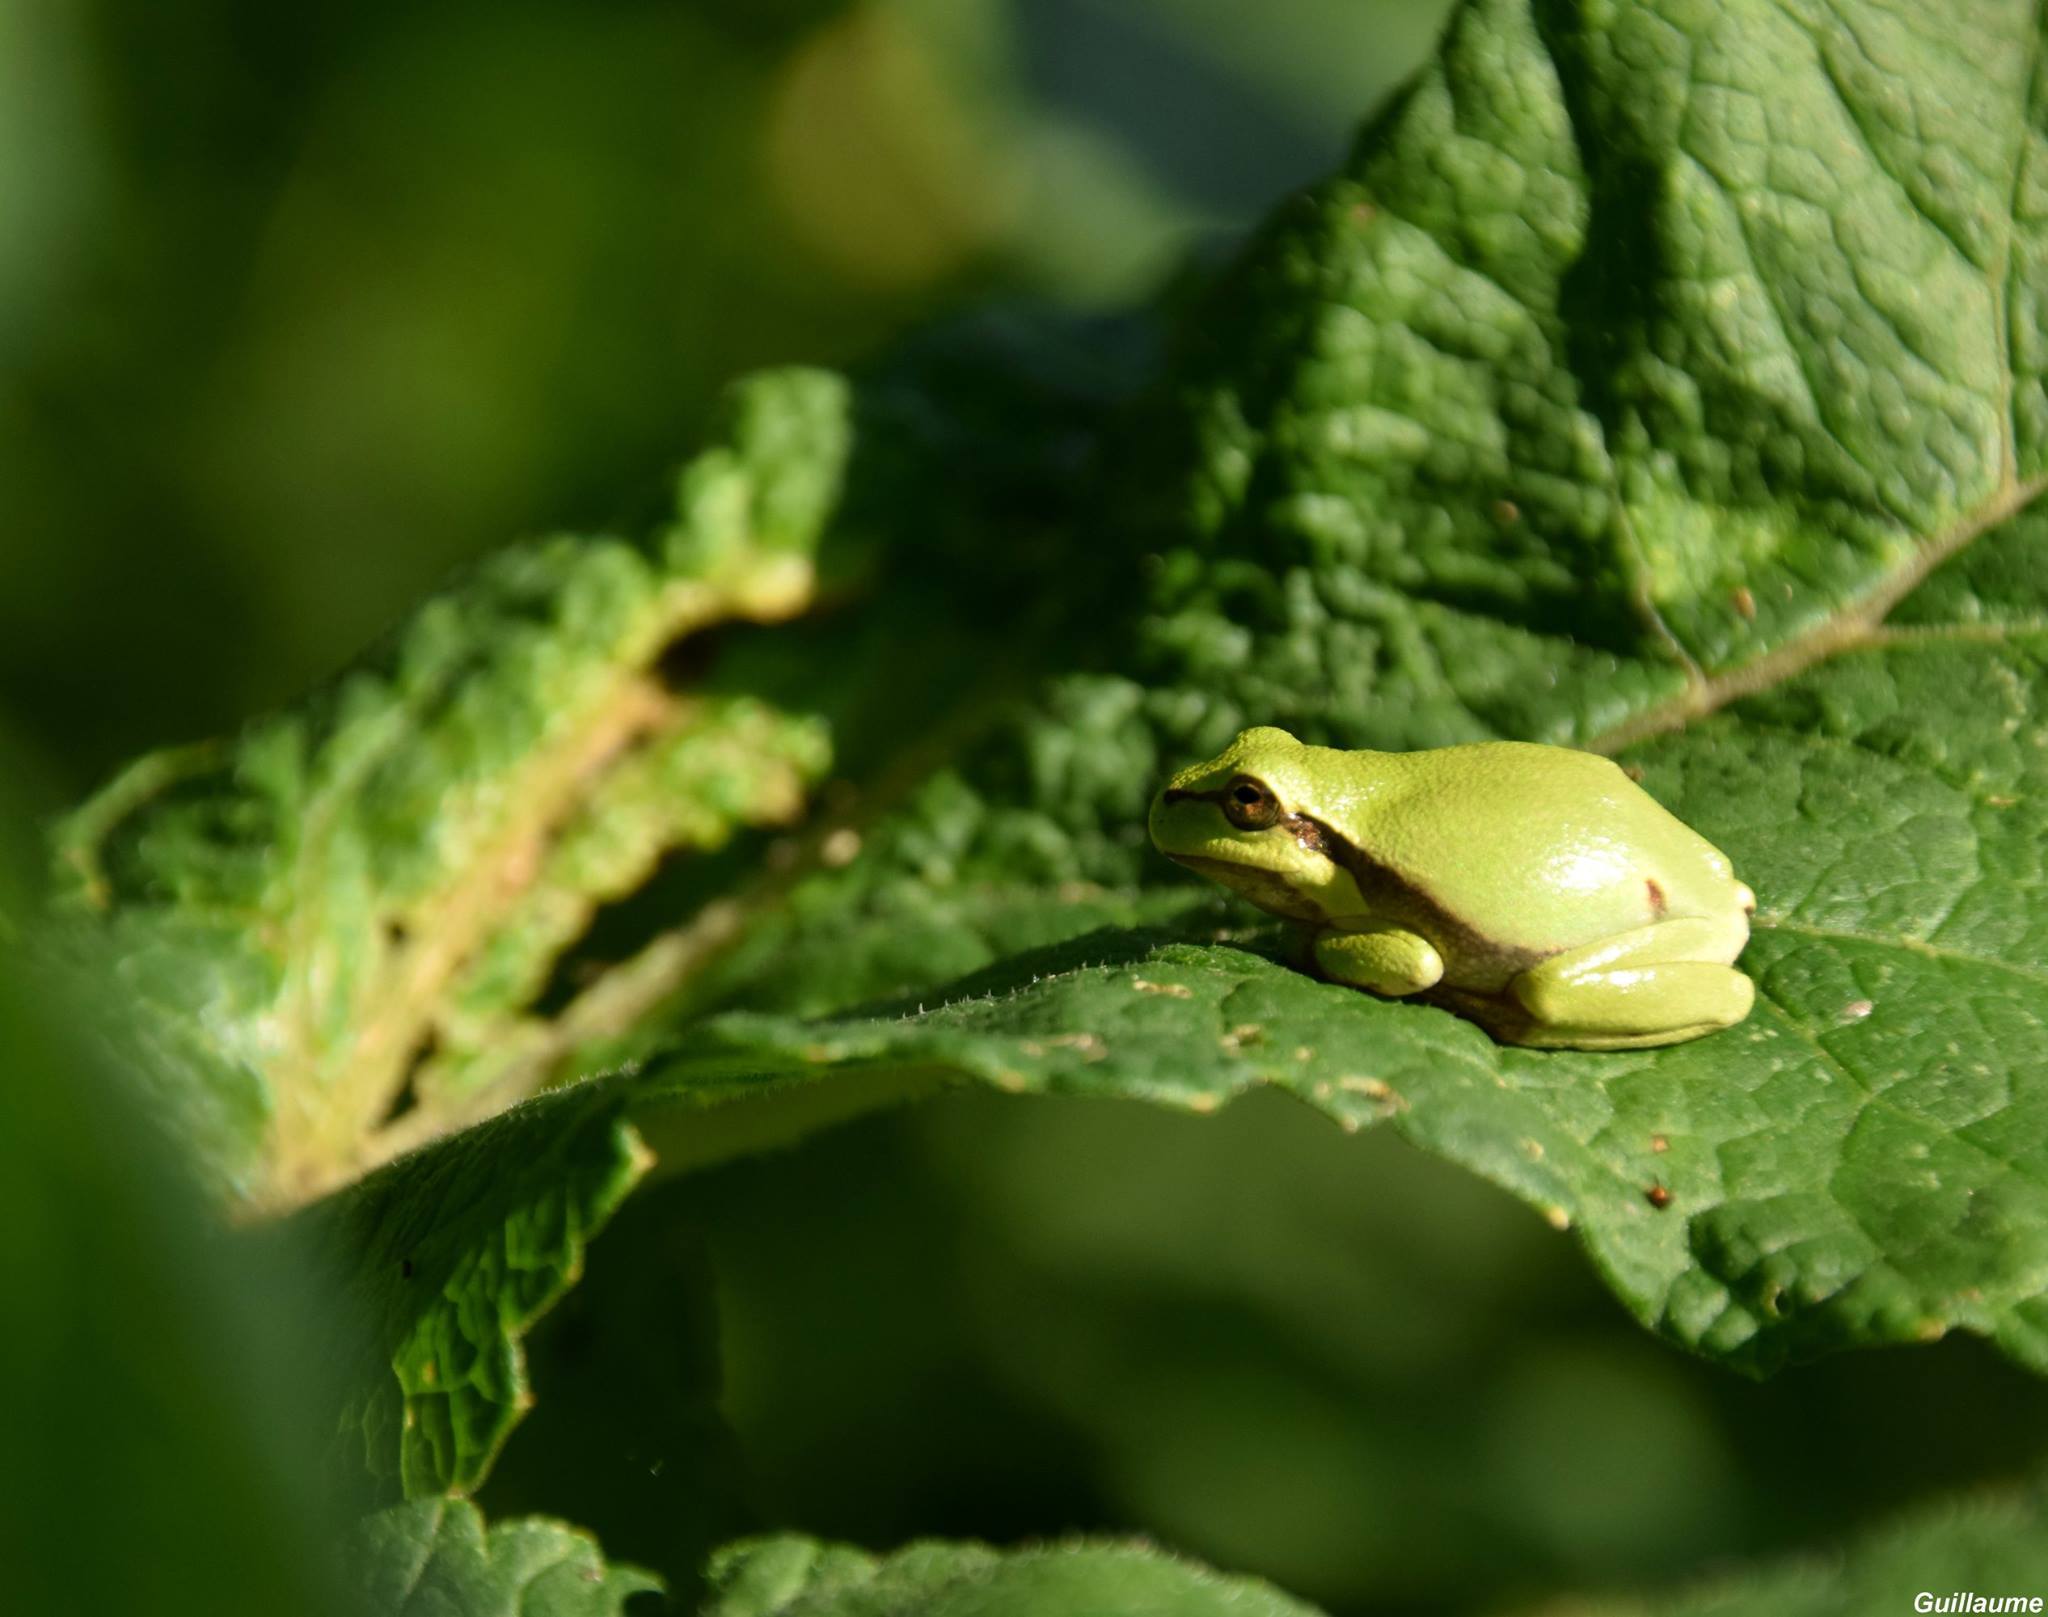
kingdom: Animalia
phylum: Chordata
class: Amphibia
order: Anura
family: Hylidae
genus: Hyla
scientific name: Hyla arborea
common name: Common tree frog
